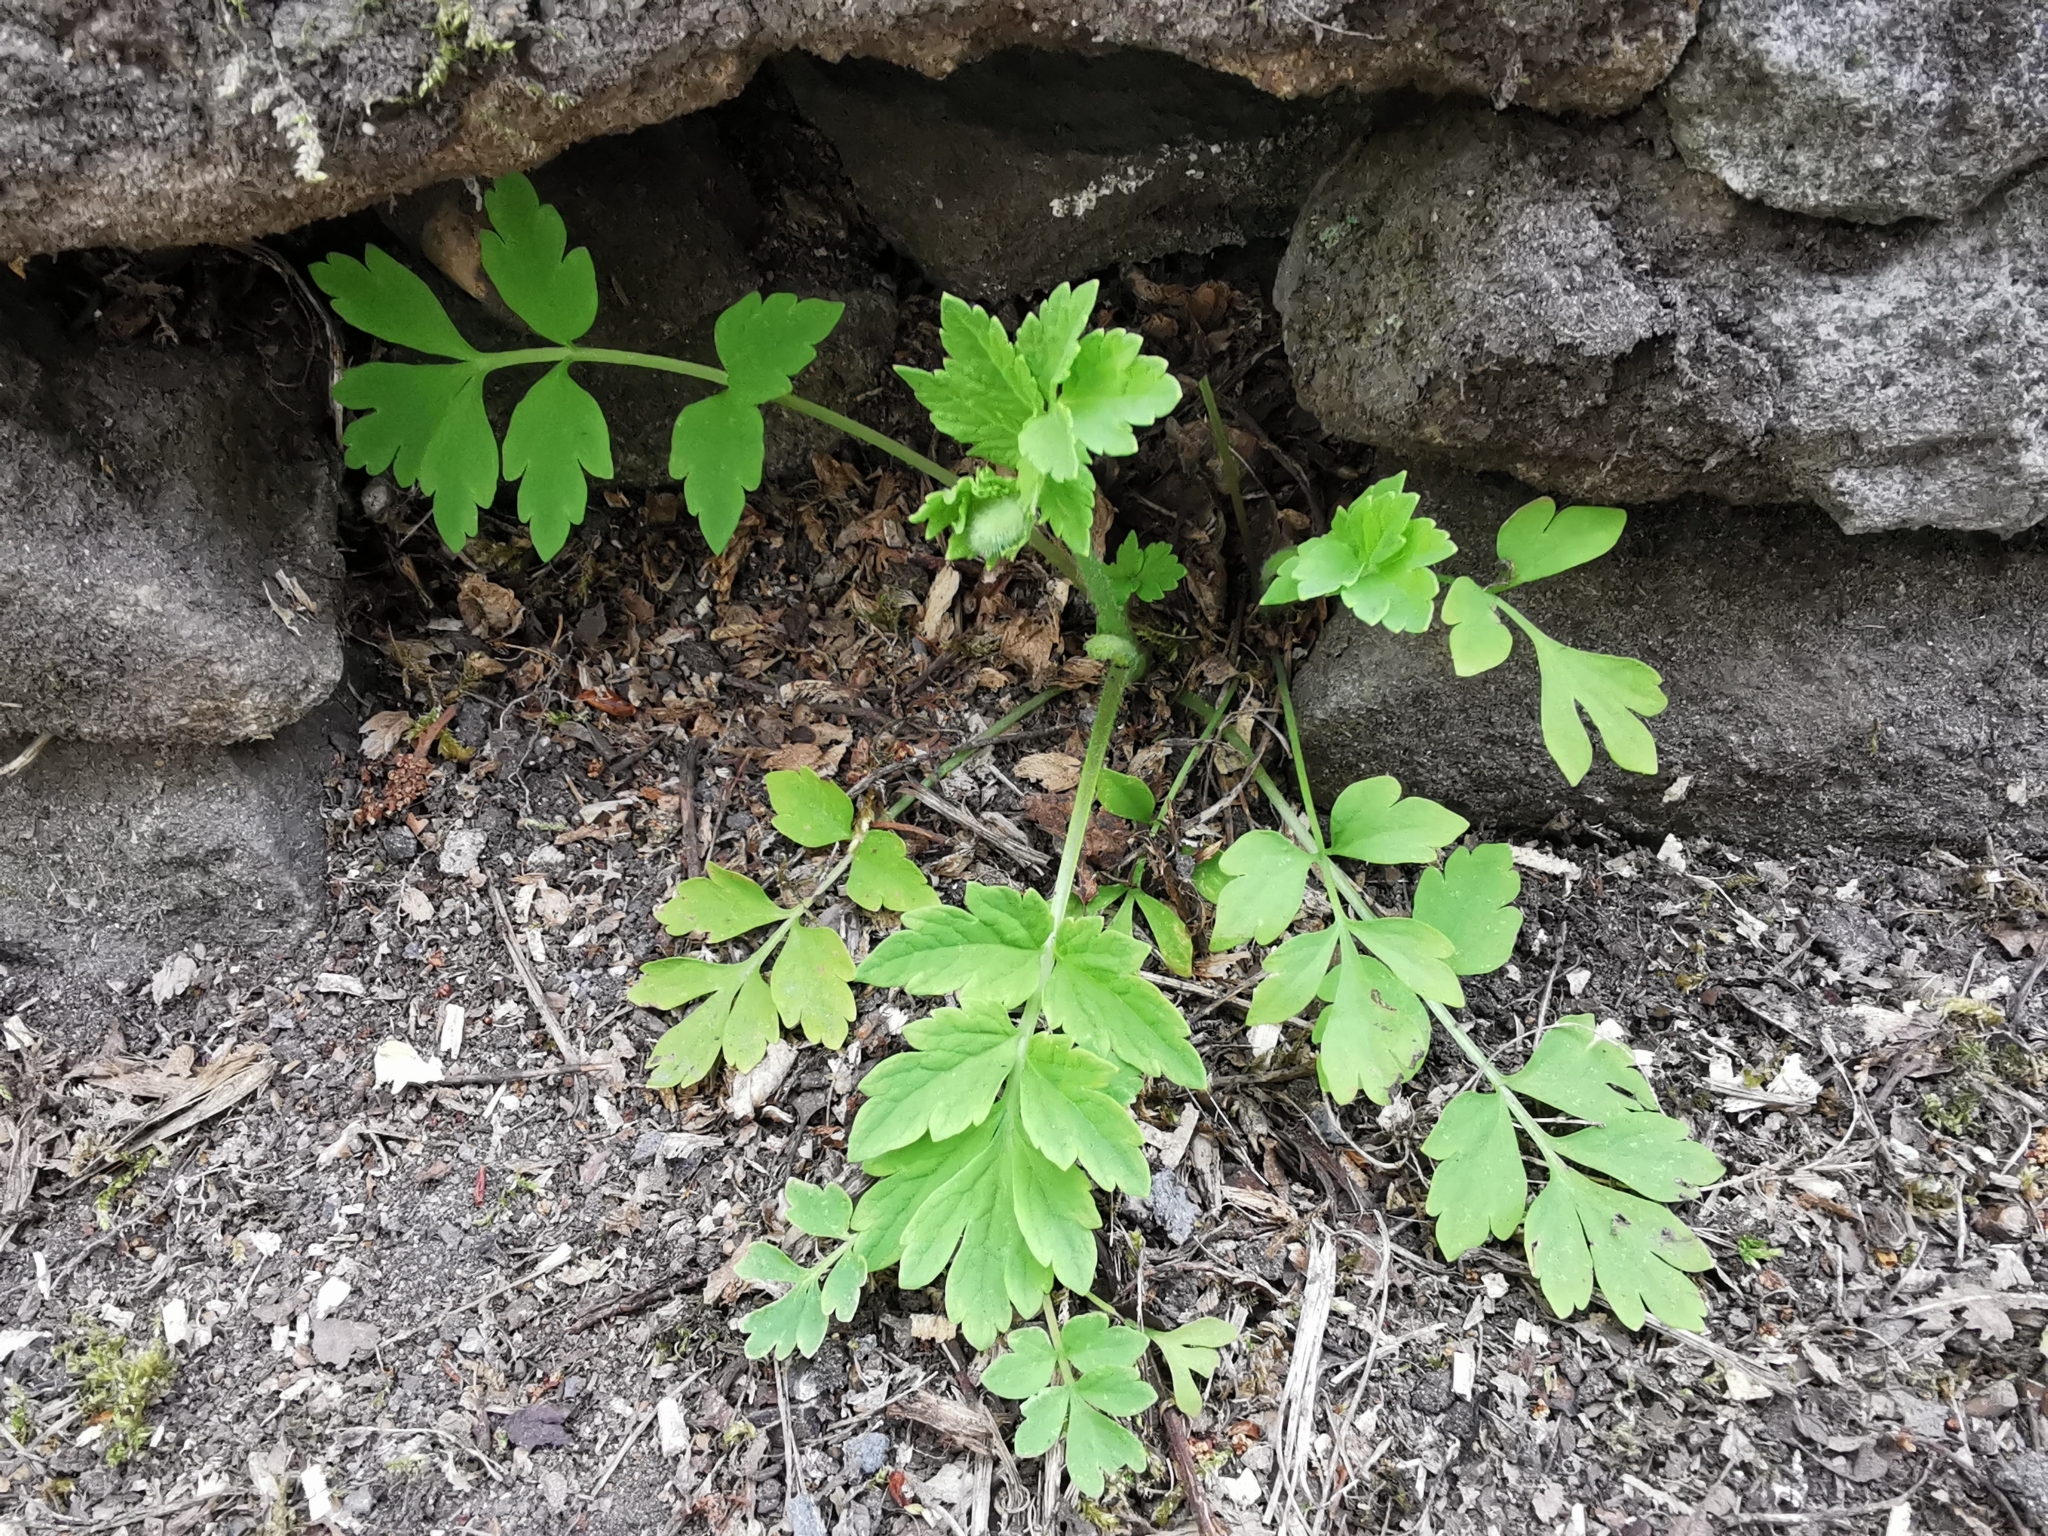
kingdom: Plantae
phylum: Tracheophyta
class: Magnoliopsida
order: Ranunculales
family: Papaveraceae
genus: Papaver
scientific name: Papaver cambricum
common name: Poppy
